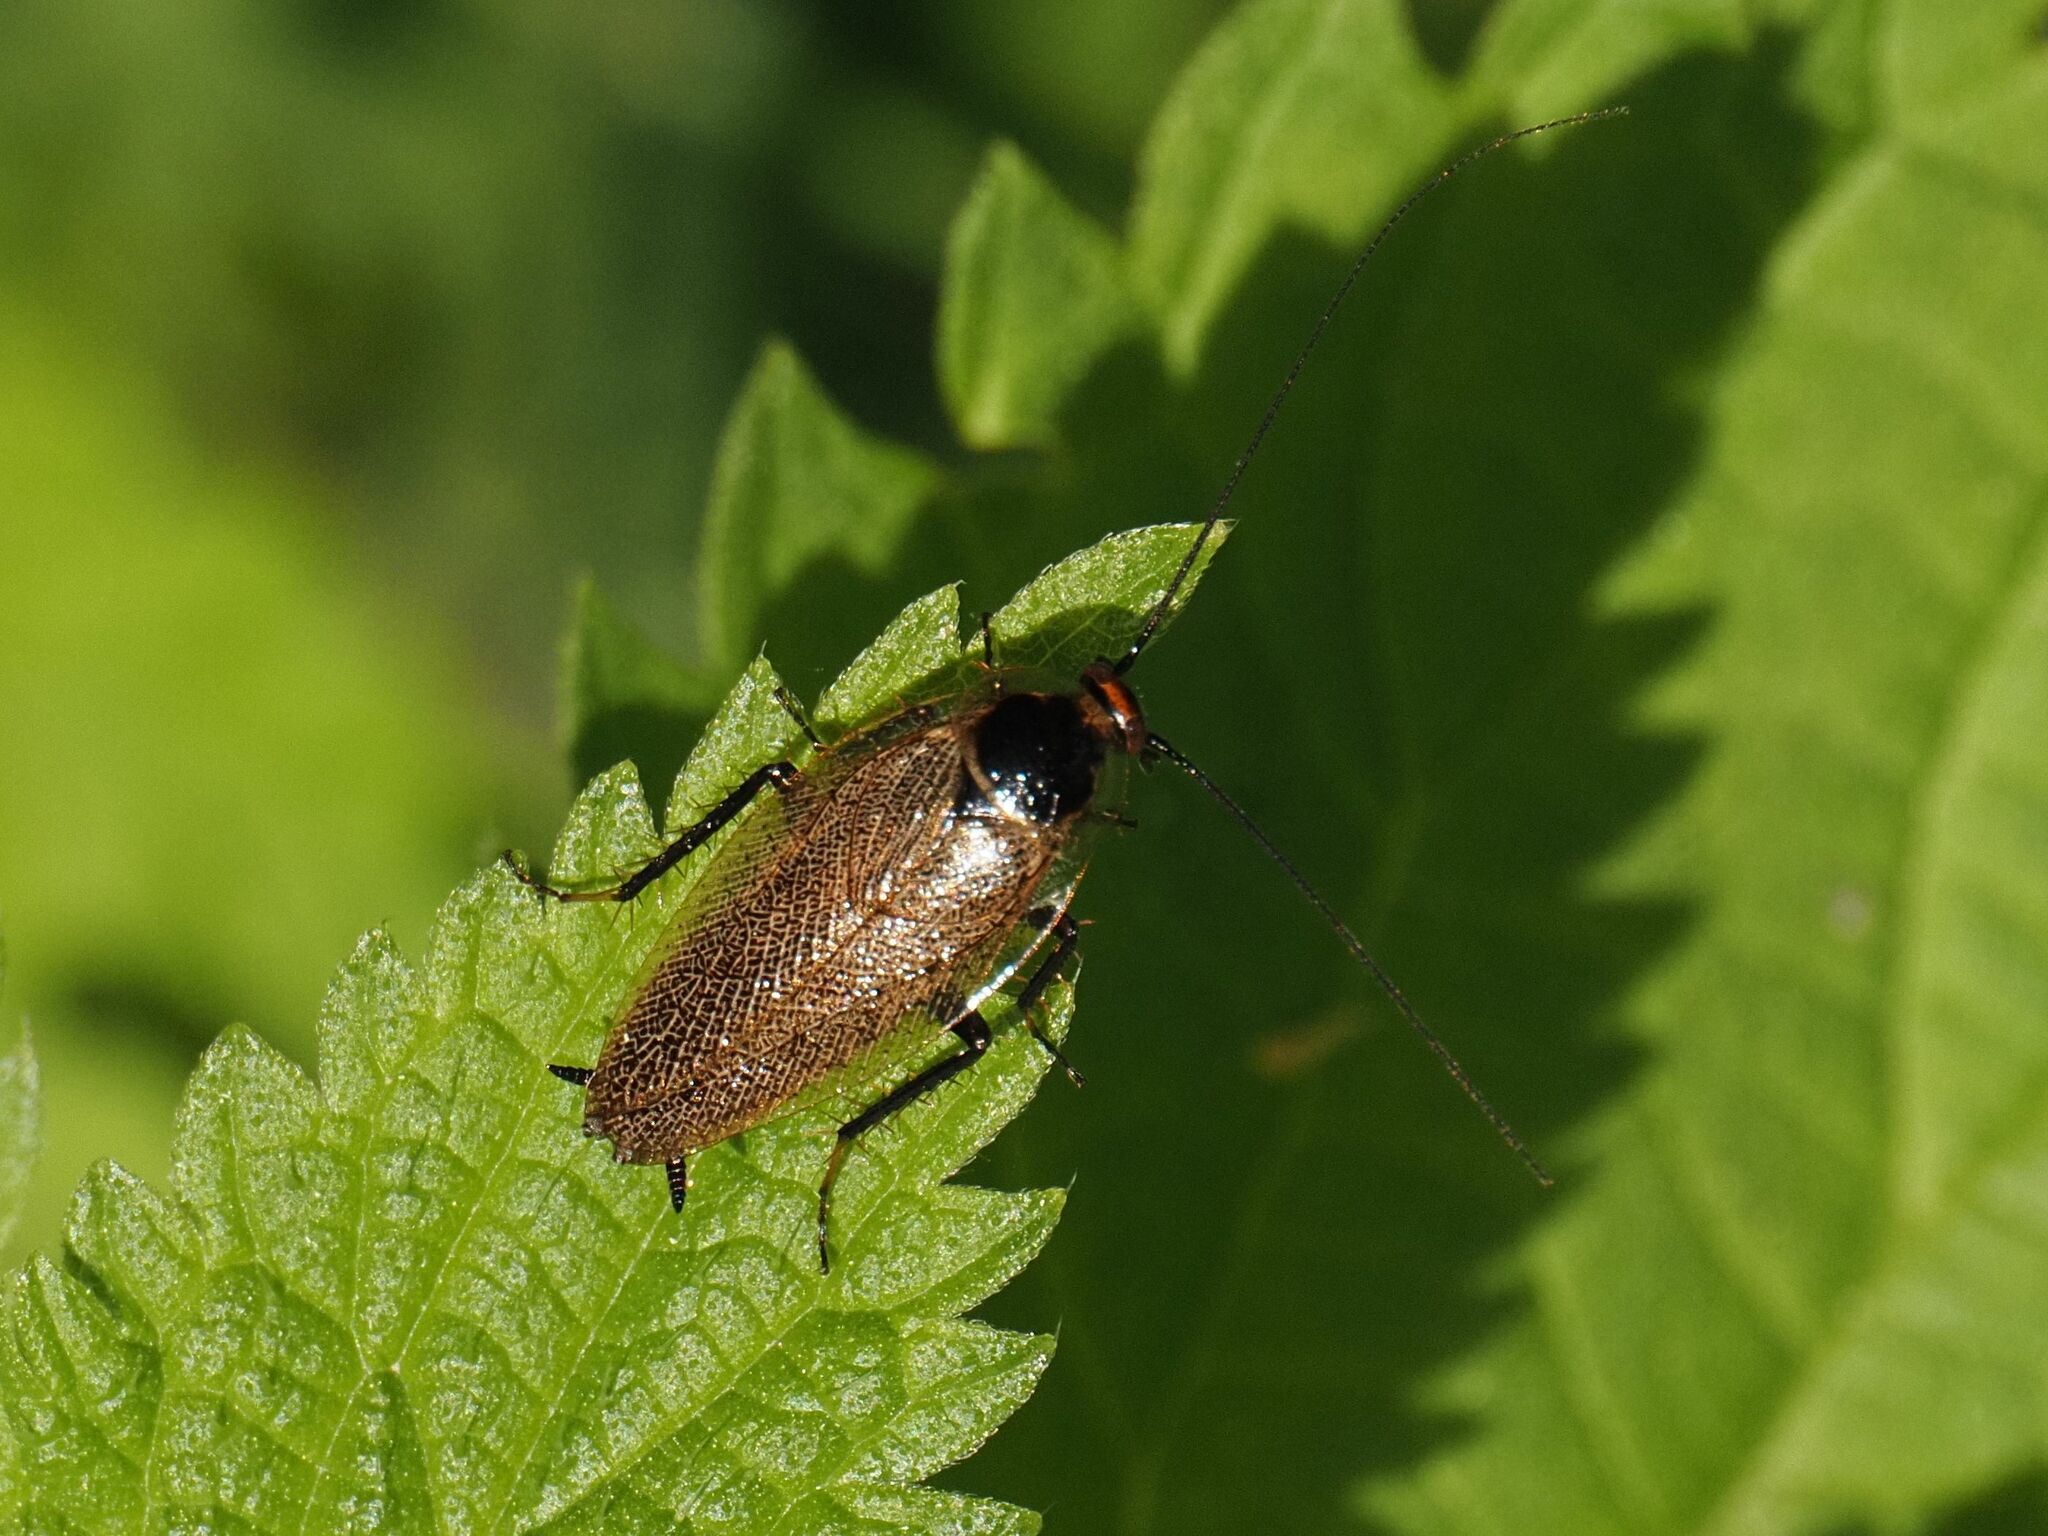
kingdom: Animalia
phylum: Arthropoda
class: Insecta
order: Blattodea
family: Ectobiidae
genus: Ectobius
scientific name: Ectobius erythronotus
